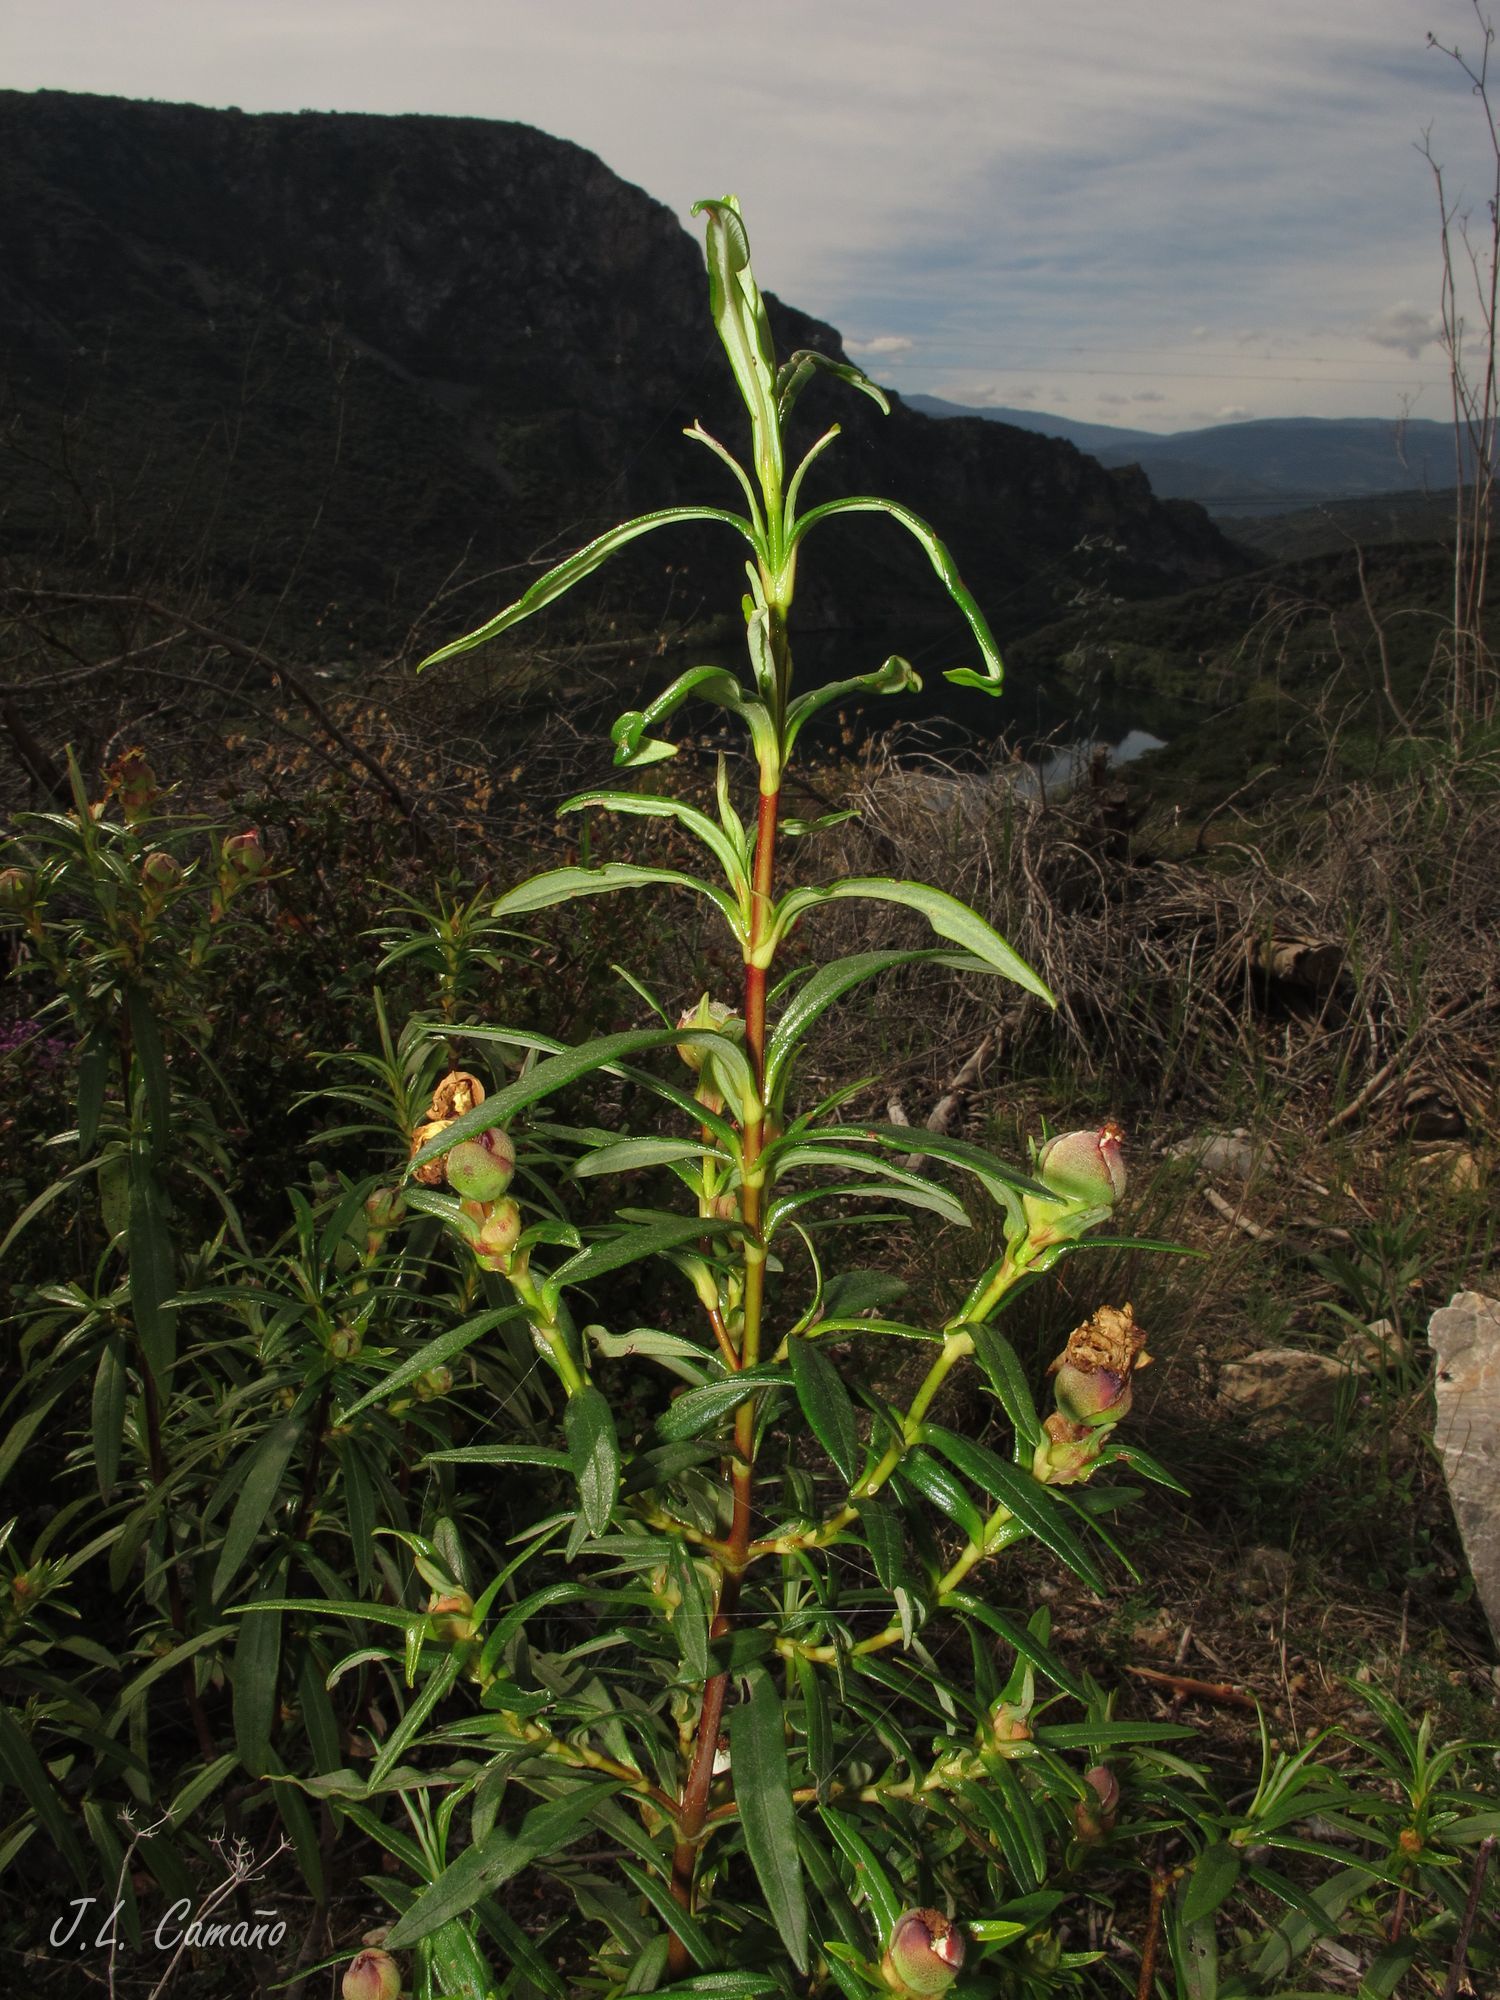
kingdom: Plantae
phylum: Tracheophyta
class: Magnoliopsida
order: Malvales
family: Cistaceae
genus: Cistus
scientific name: Cistus ladanifer
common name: Common gum cistus
